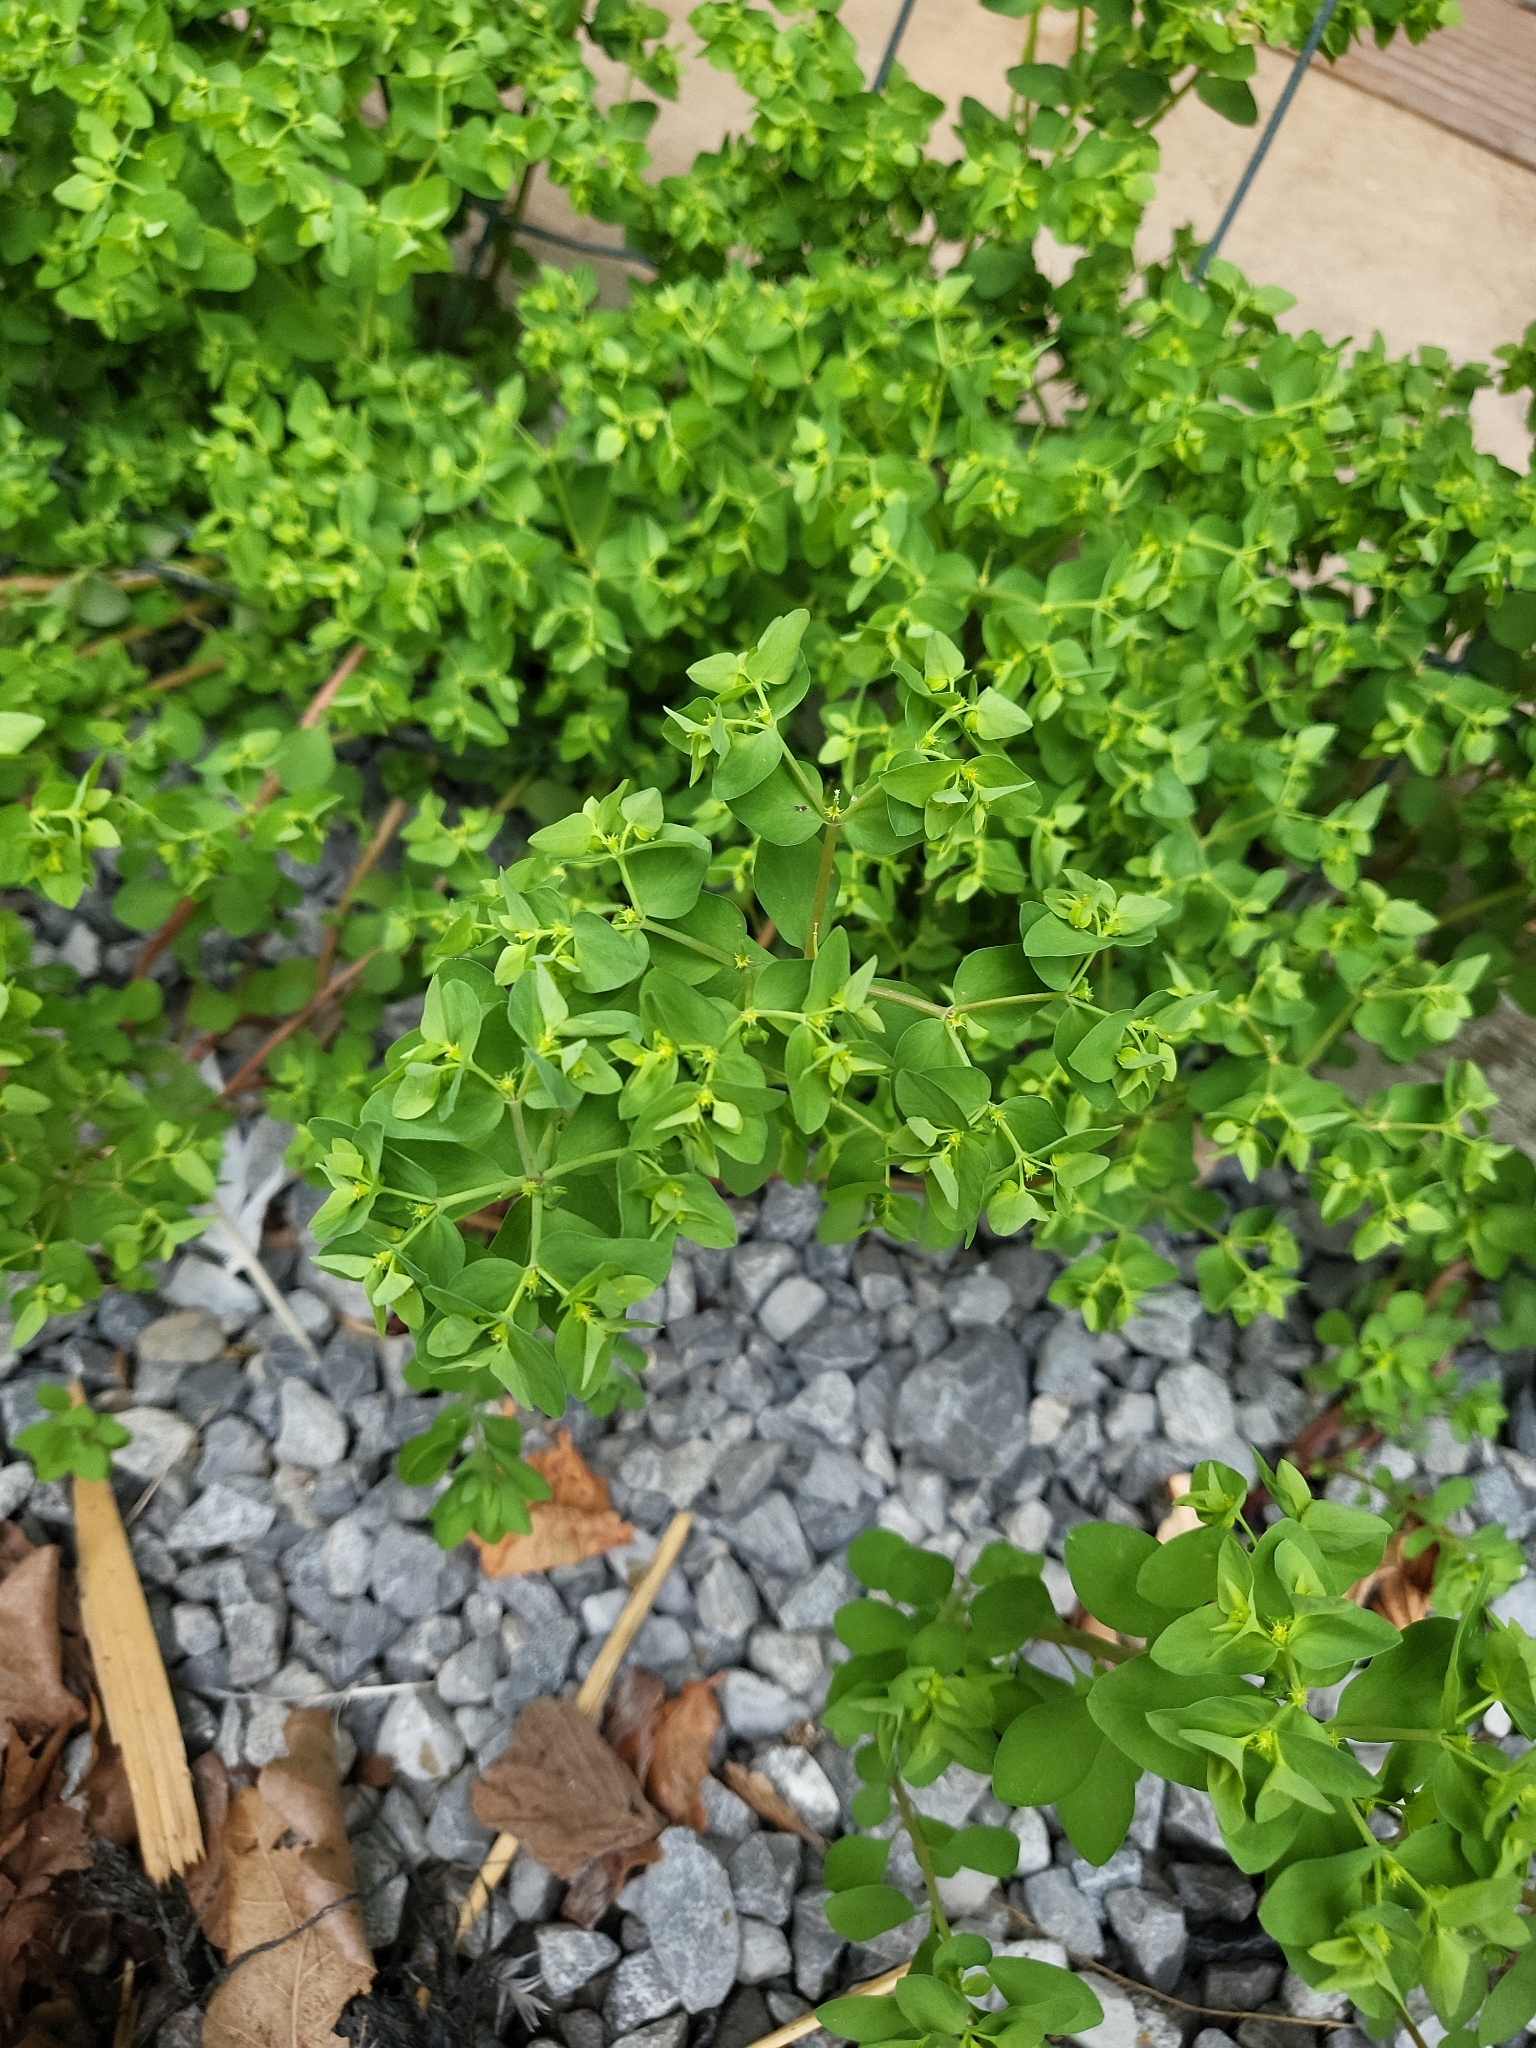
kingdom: Plantae
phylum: Tracheophyta
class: Magnoliopsida
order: Malpighiales
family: Euphorbiaceae
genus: Euphorbia
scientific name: Euphorbia peplus
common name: Petty spurge
